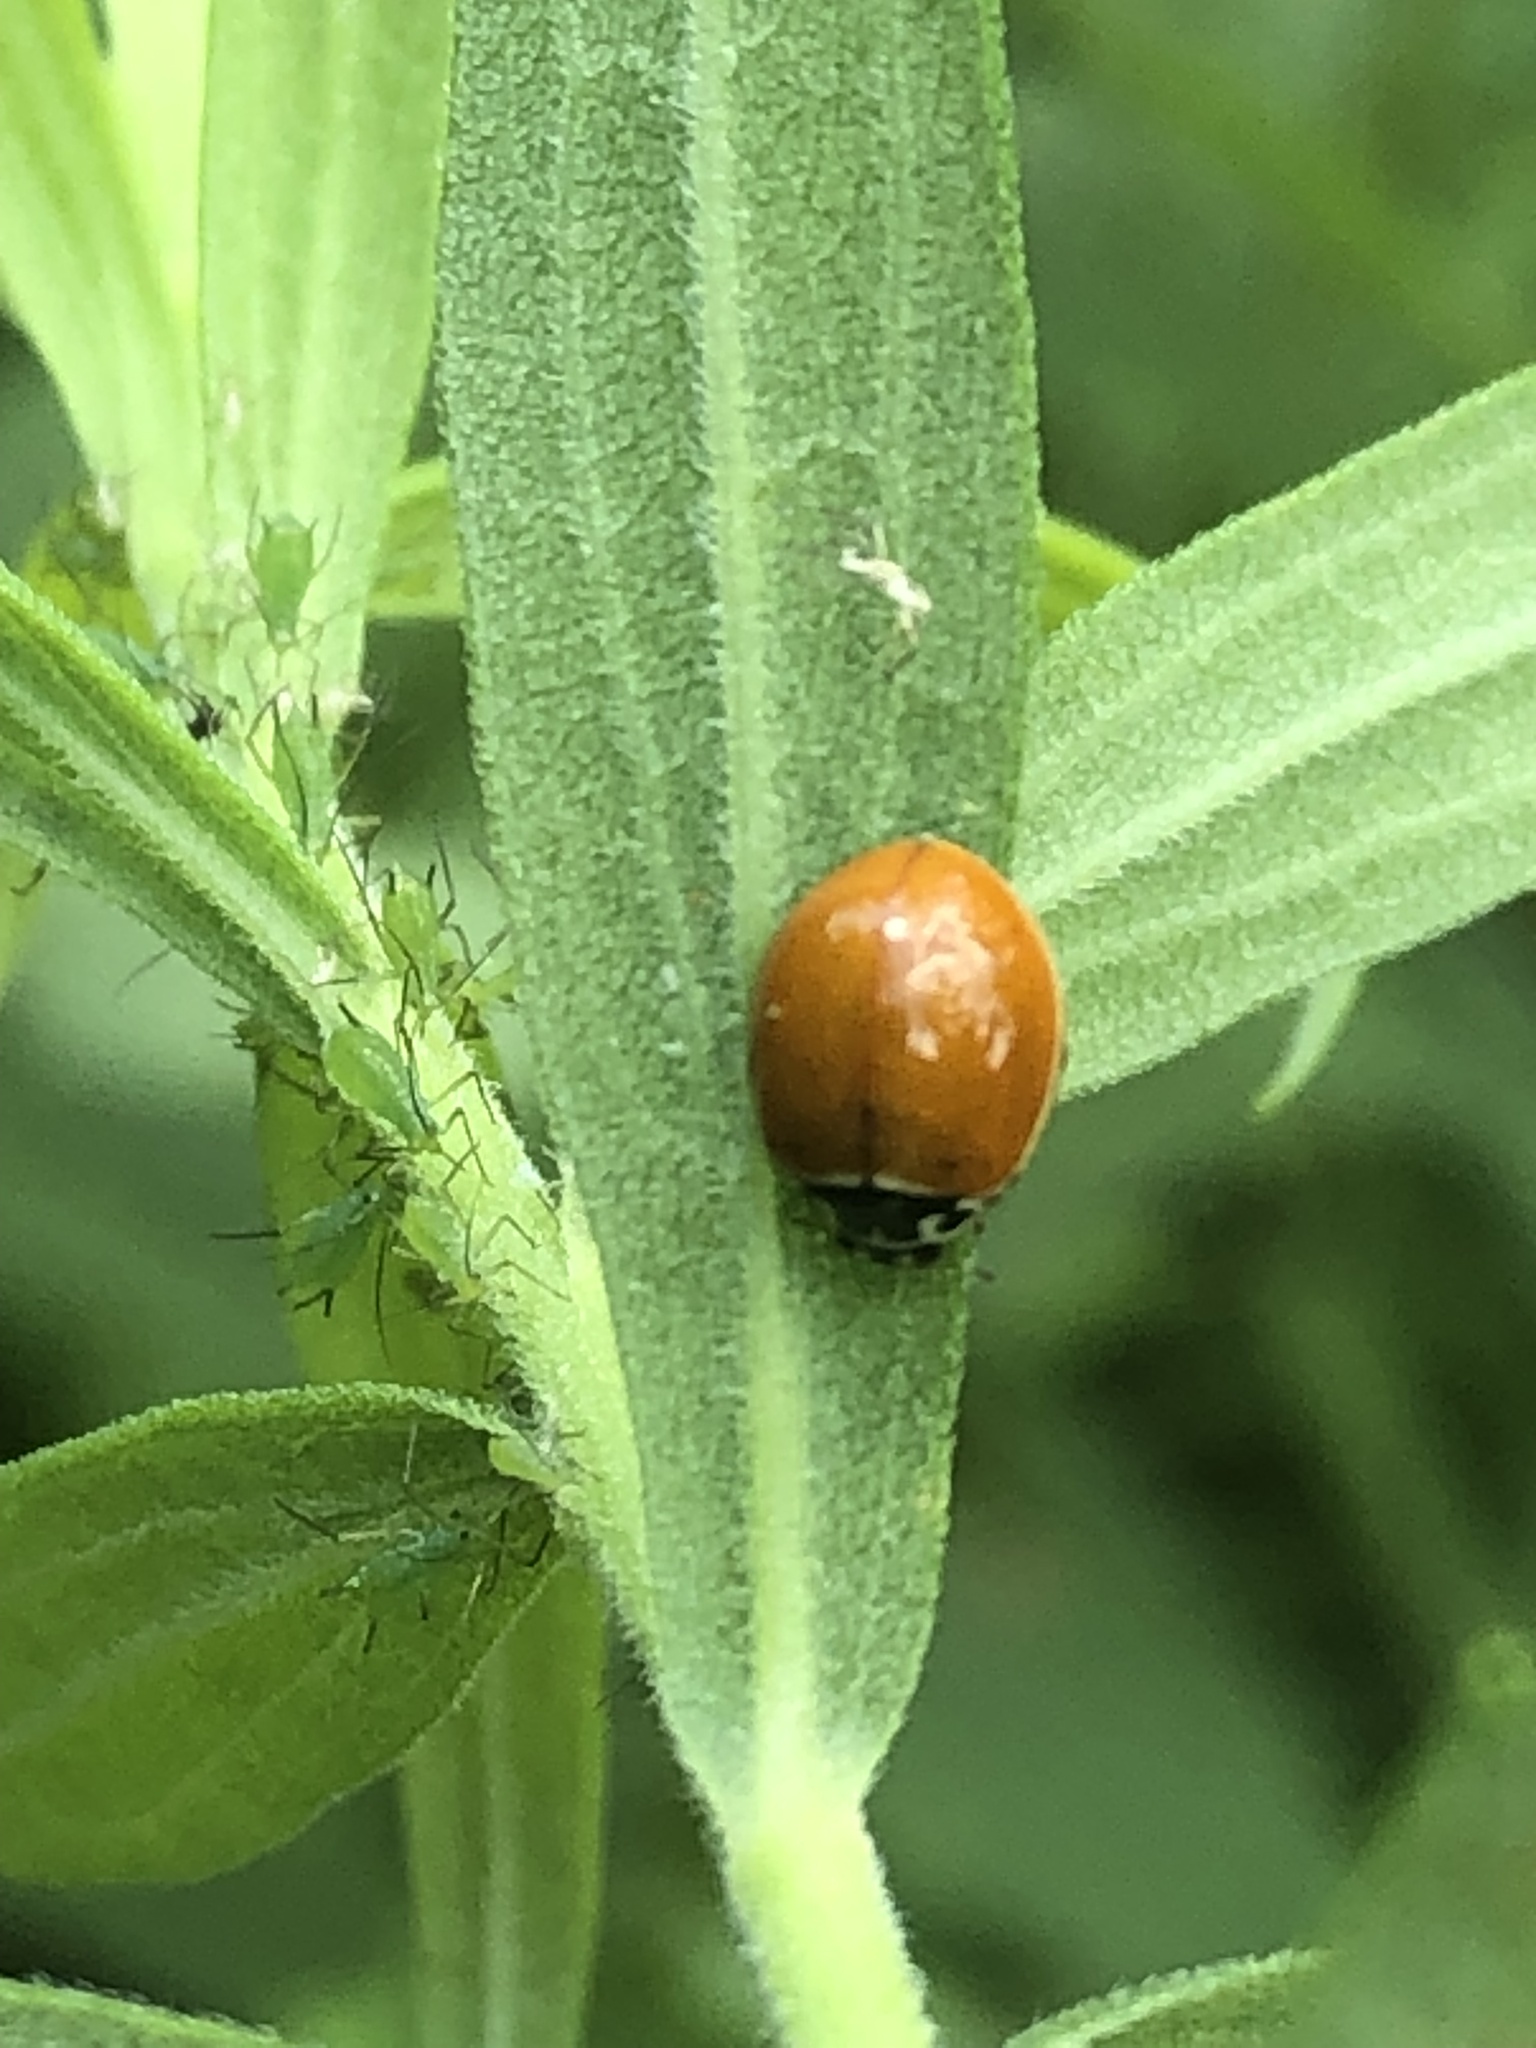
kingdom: Animalia
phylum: Arthropoda
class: Insecta
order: Coleoptera
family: Coccinellidae
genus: Cycloneda
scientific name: Cycloneda munda
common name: Polished lady beetle
